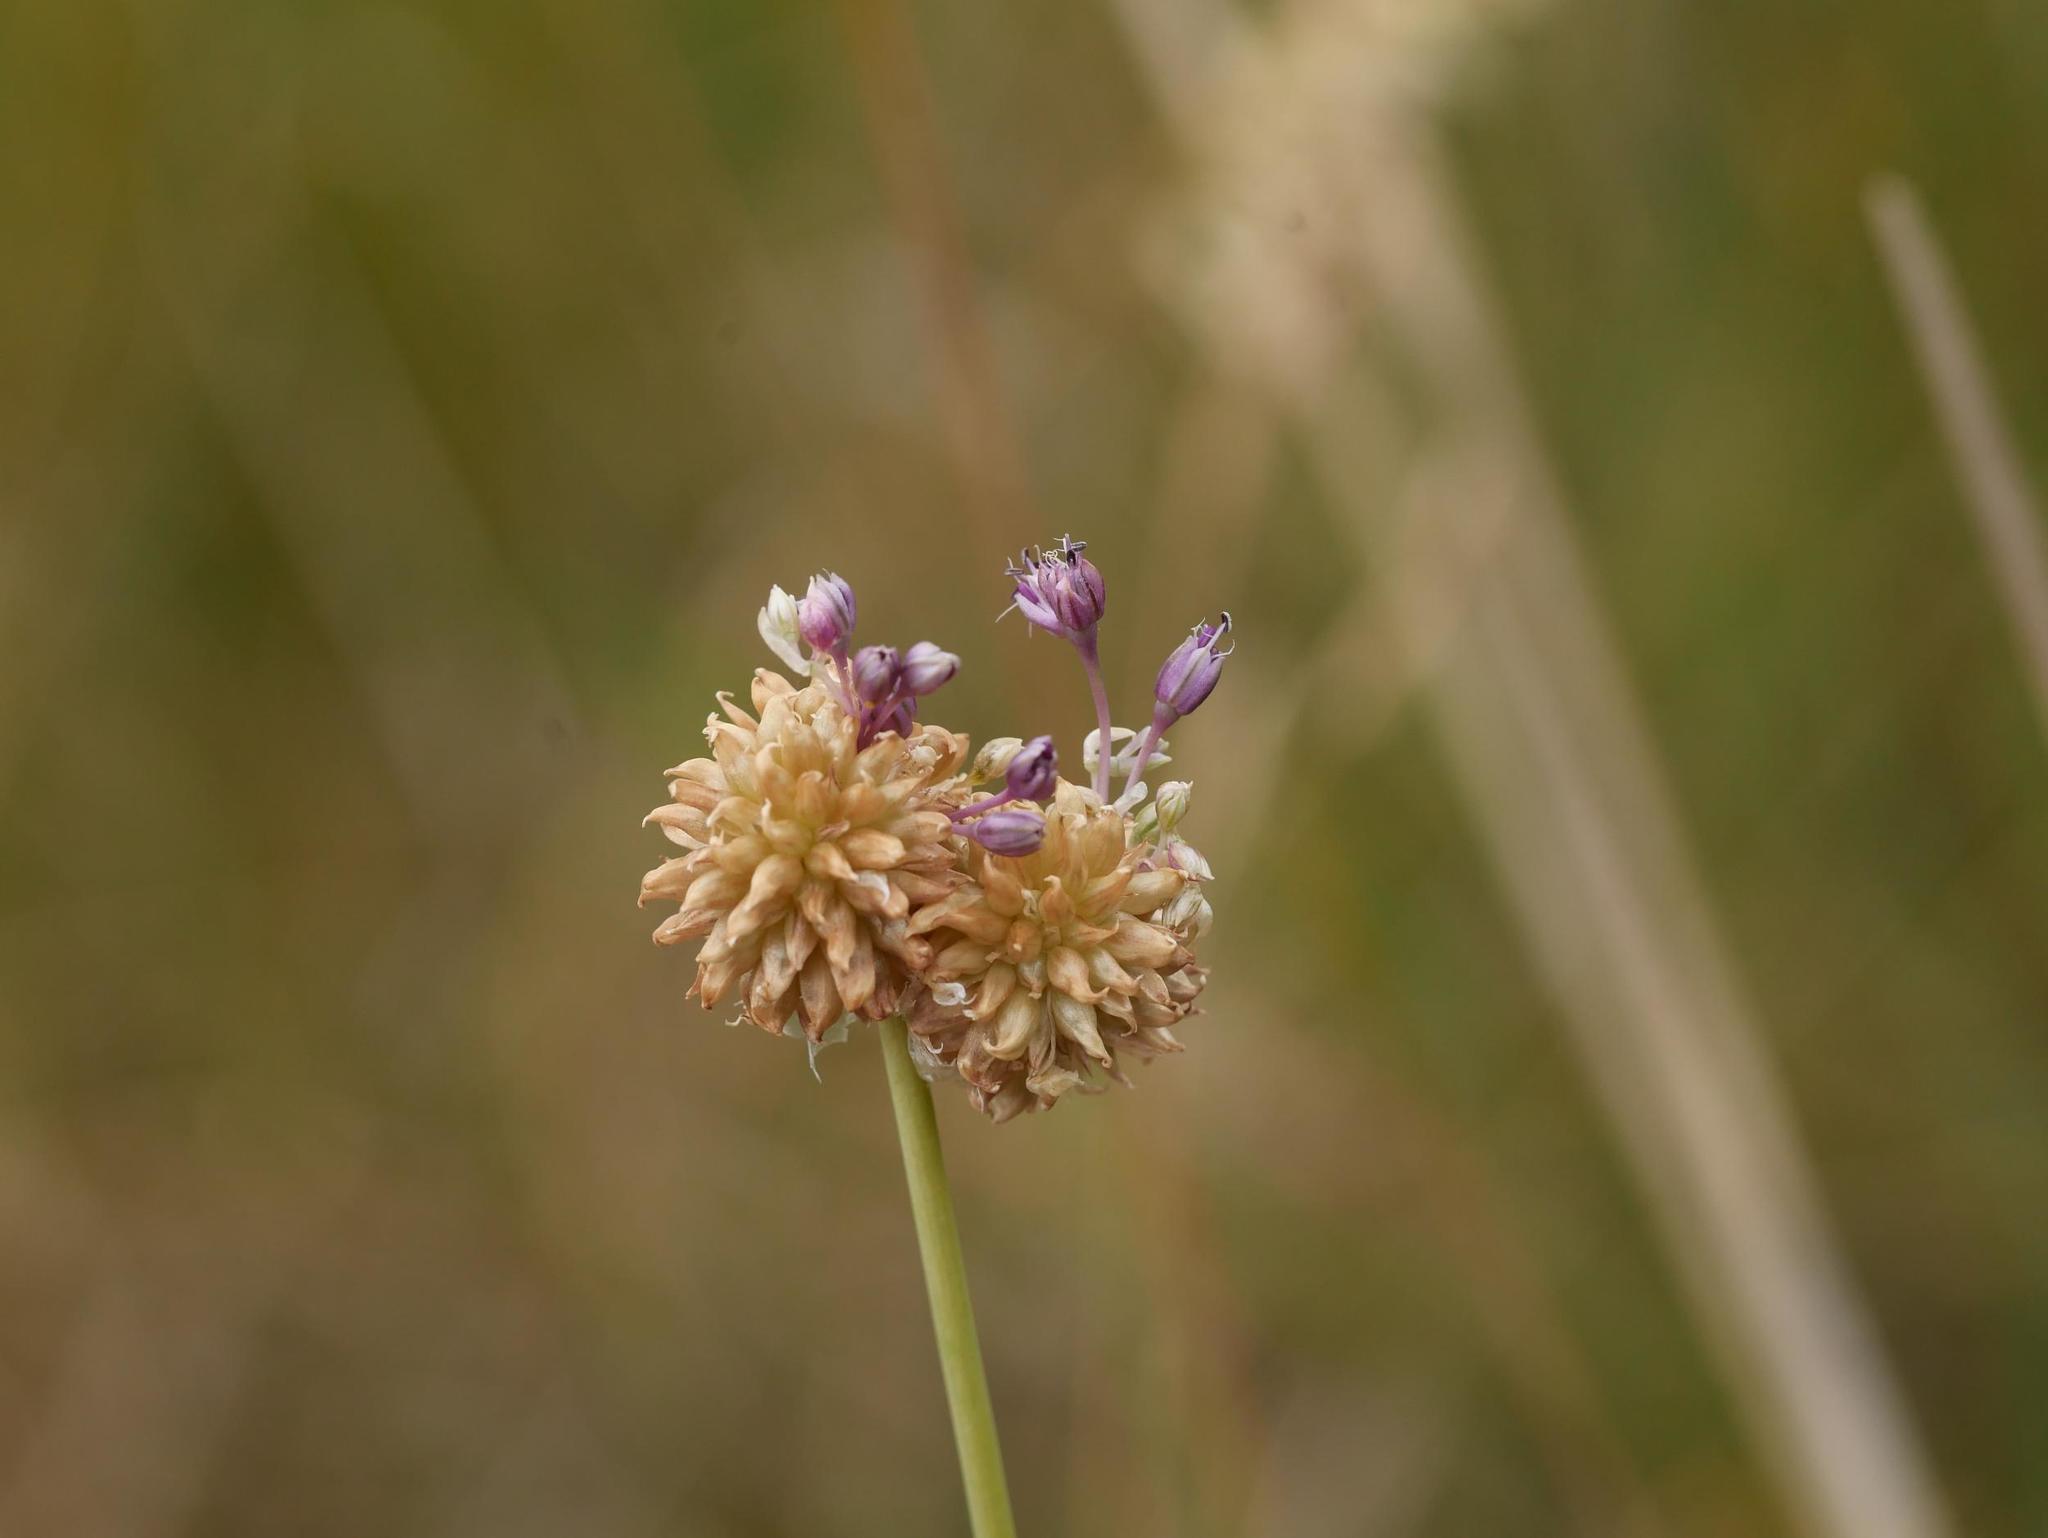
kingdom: Plantae
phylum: Tracheophyta
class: Liliopsida
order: Asparagales
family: Amaryllidaceae
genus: Allium
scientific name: Allium vineale
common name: Crow garlic
